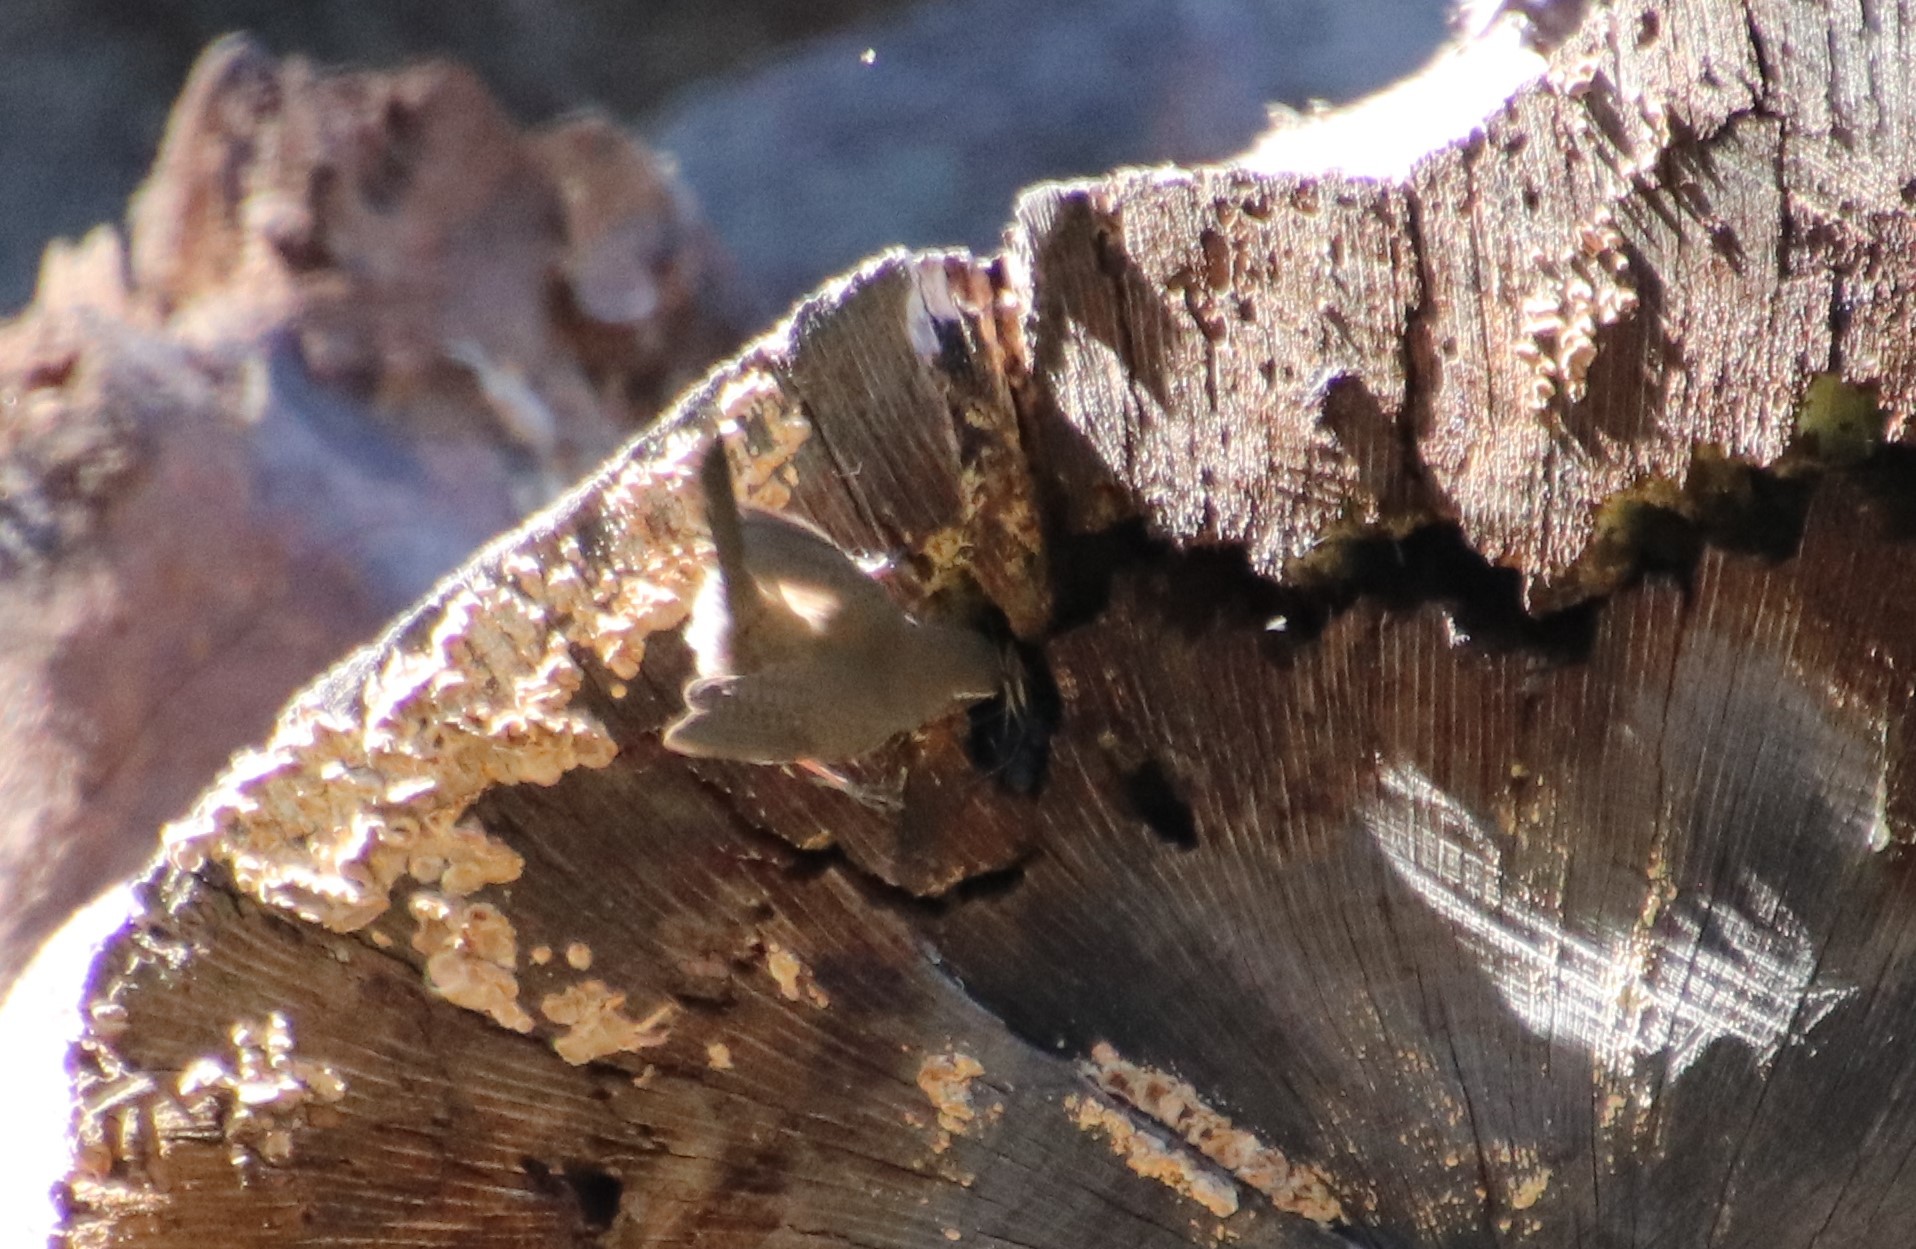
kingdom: Animalia
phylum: Chordata
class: Aves
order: Passeriformes
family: Troglodytidae
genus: Thryomanes
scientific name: Thryomanes bewickii
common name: Bewick's wren
